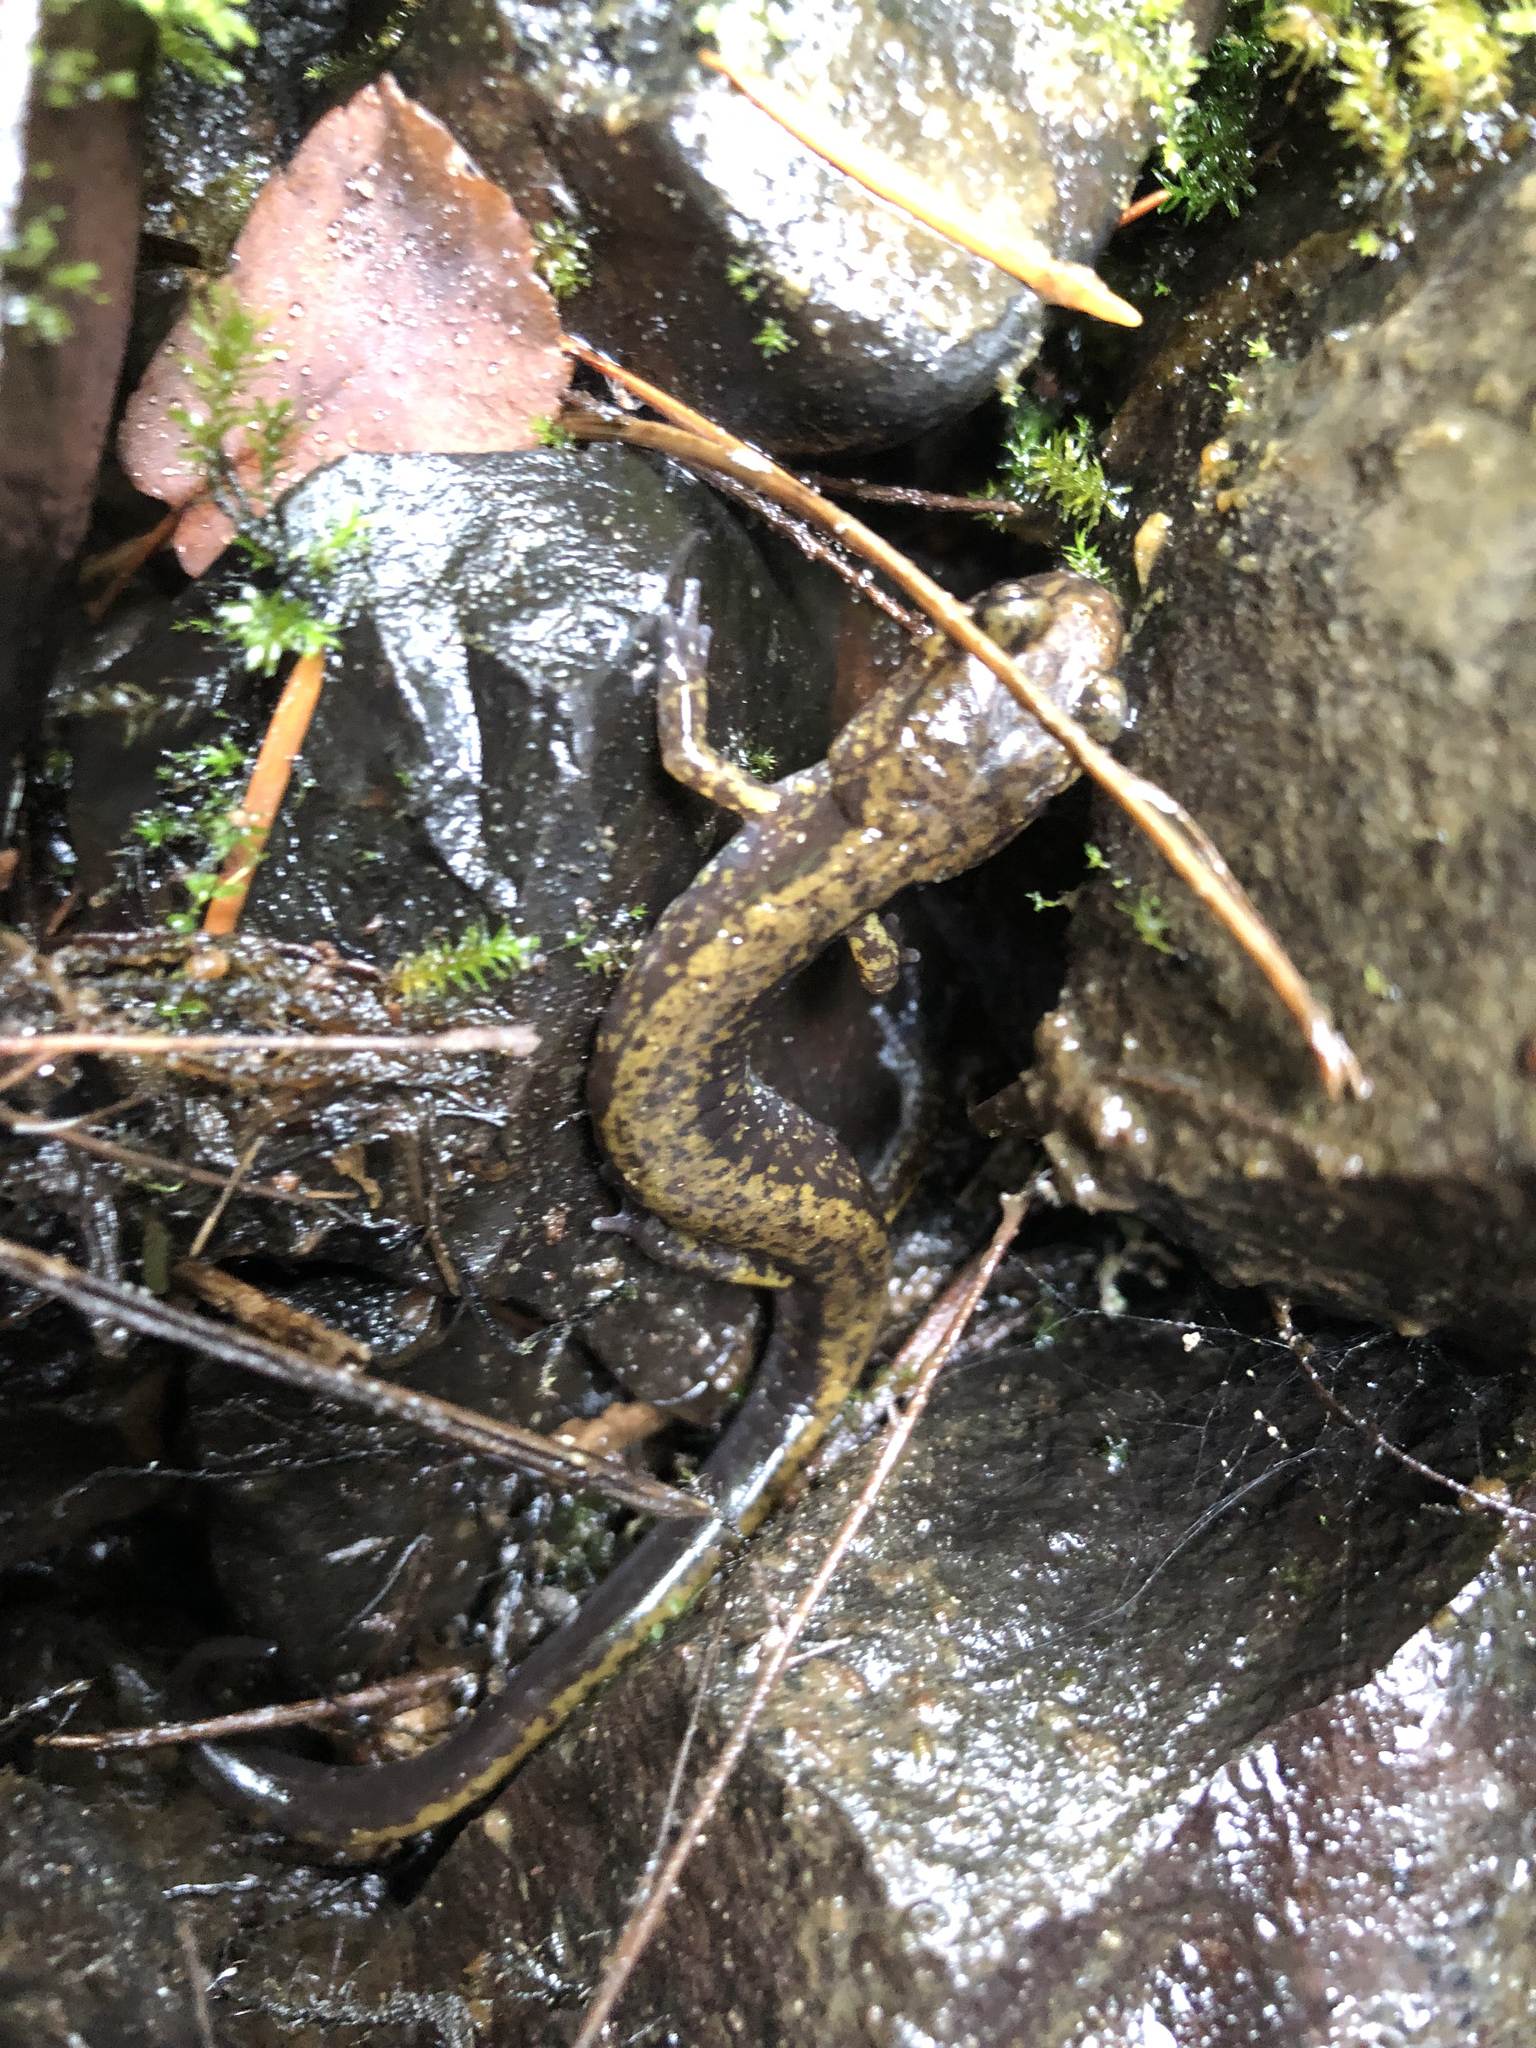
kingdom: Animalia
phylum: Chordata
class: Amphibia
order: Caudata
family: Plethodontidae
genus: Plethodon
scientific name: Plethodon dunni
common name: Dunn's salamander
